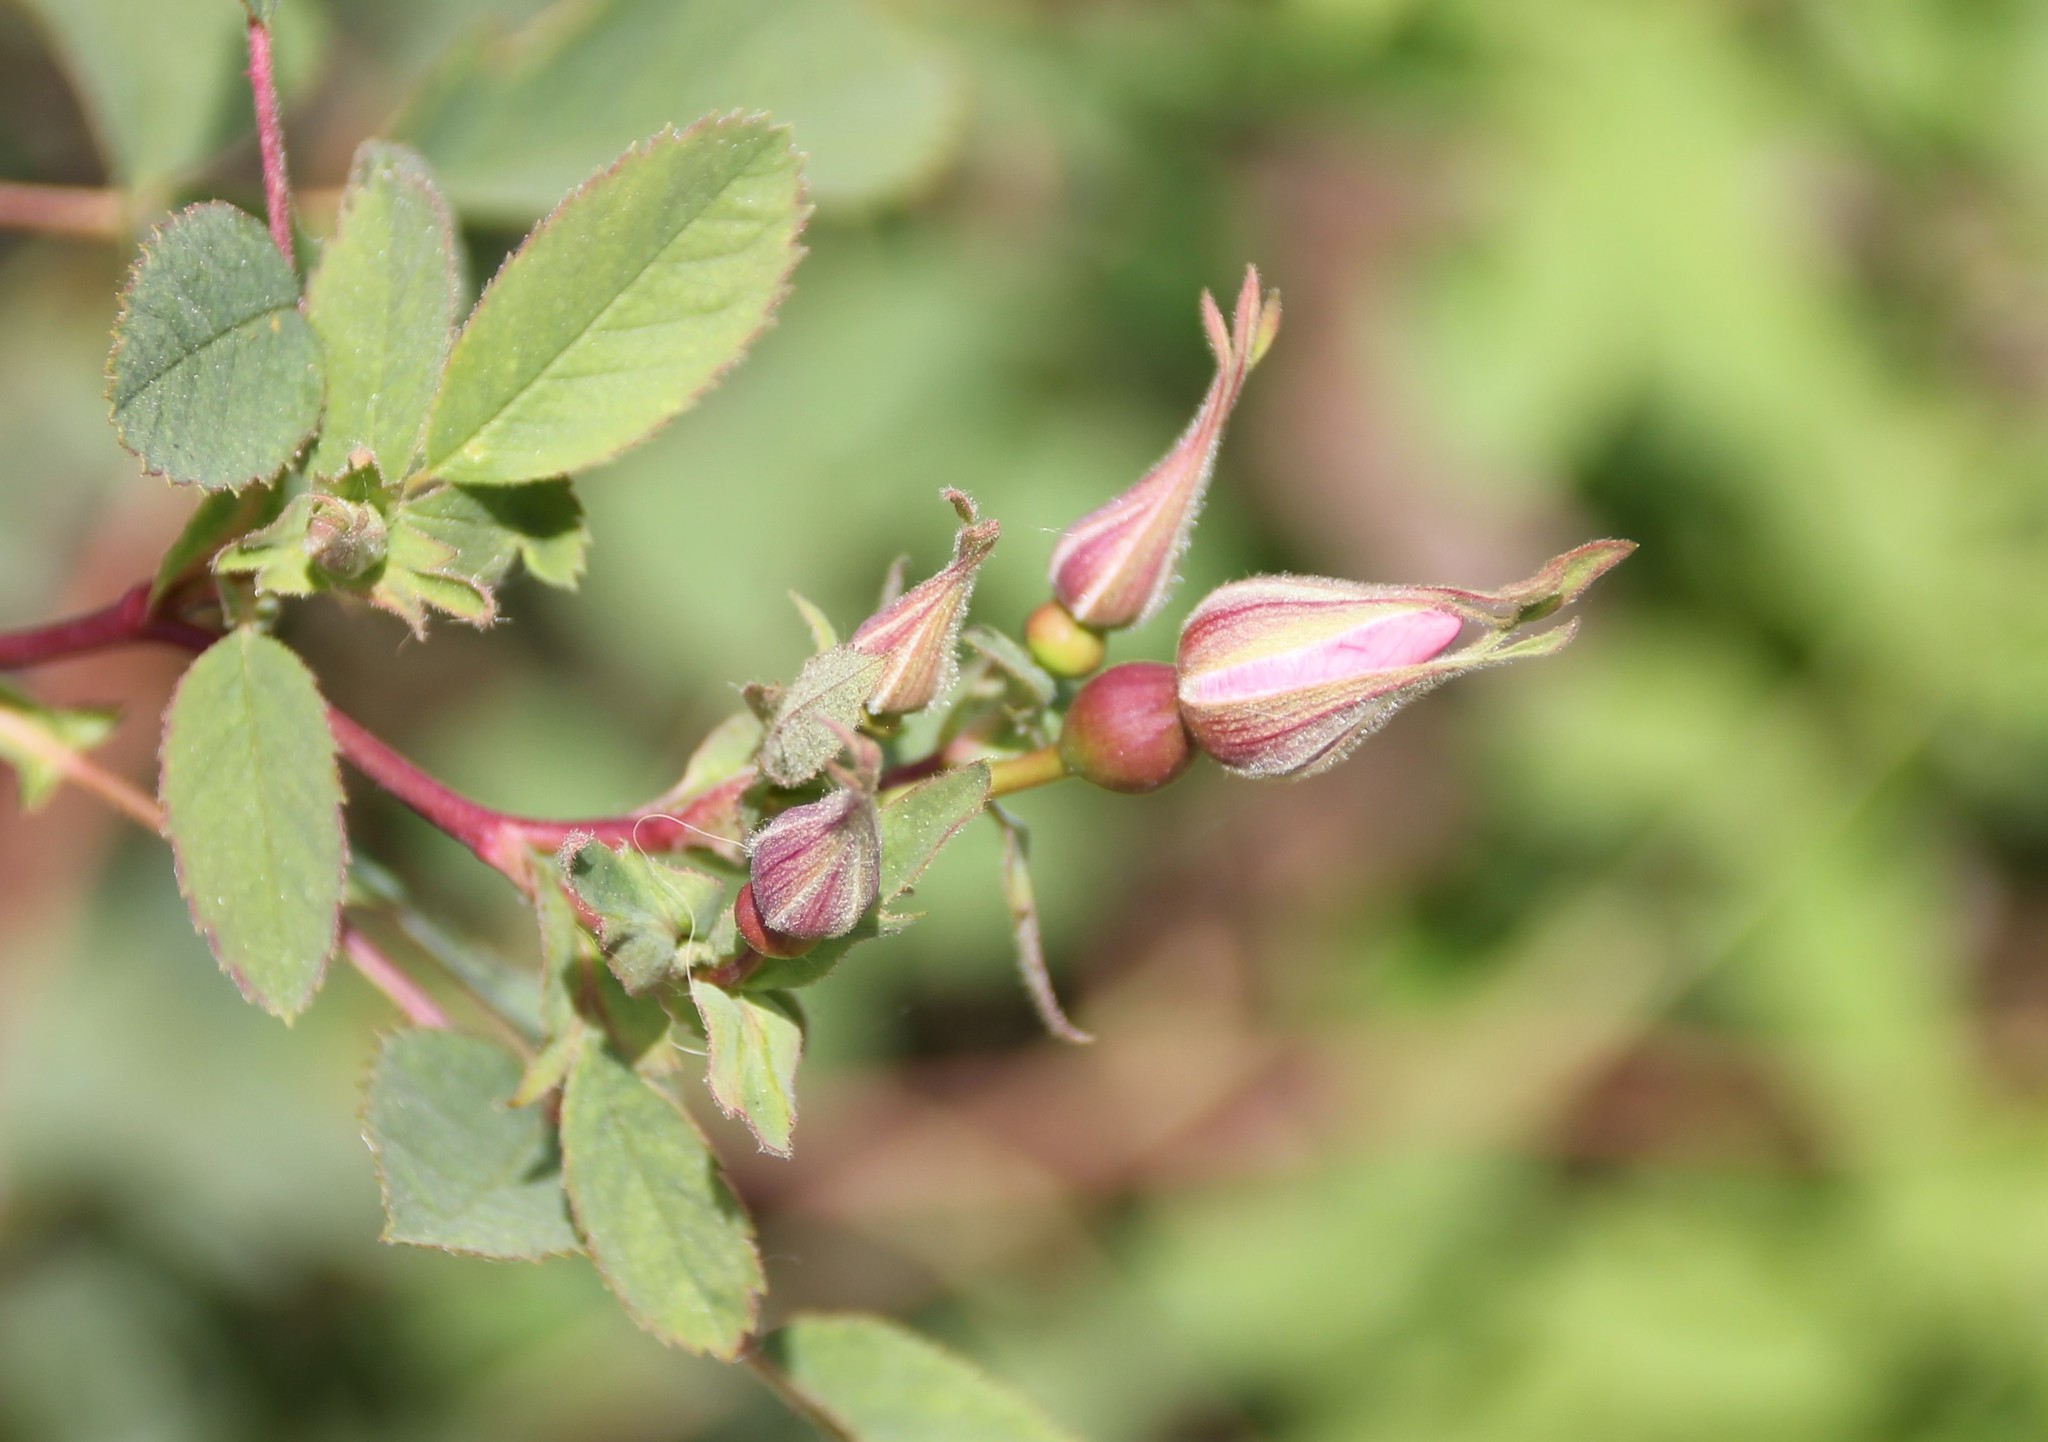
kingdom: Plantae
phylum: Tracheophyta
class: Magnoliopsida
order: Rosales
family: Rosaceae
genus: Rosa
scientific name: Rosa californica
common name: California rose
